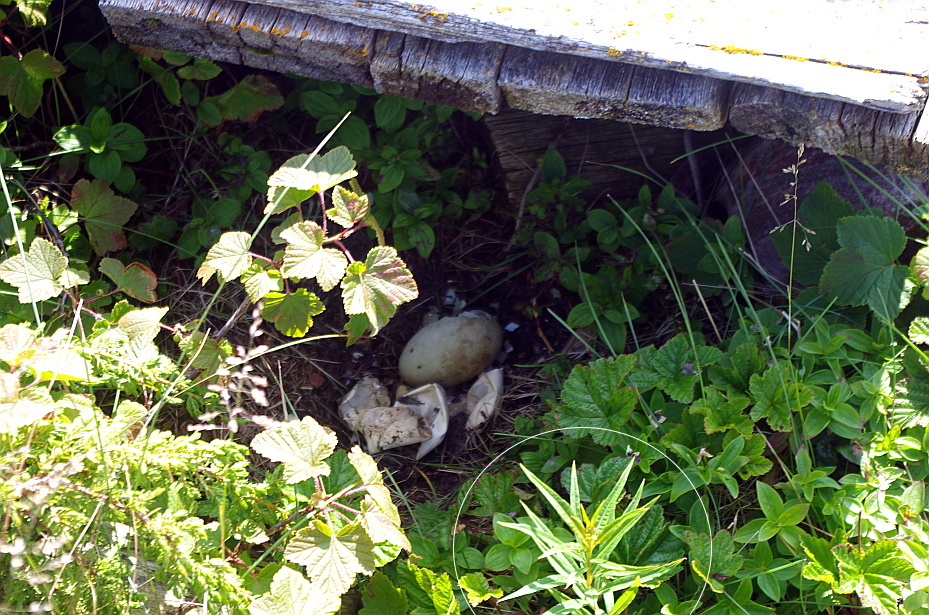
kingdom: Plantae
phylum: Tracheophyta
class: Magnoliopsida
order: Myrtales
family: Onagraceae
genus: Chamaenerion
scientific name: Chamaenerion angustifolium
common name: Fireweed
